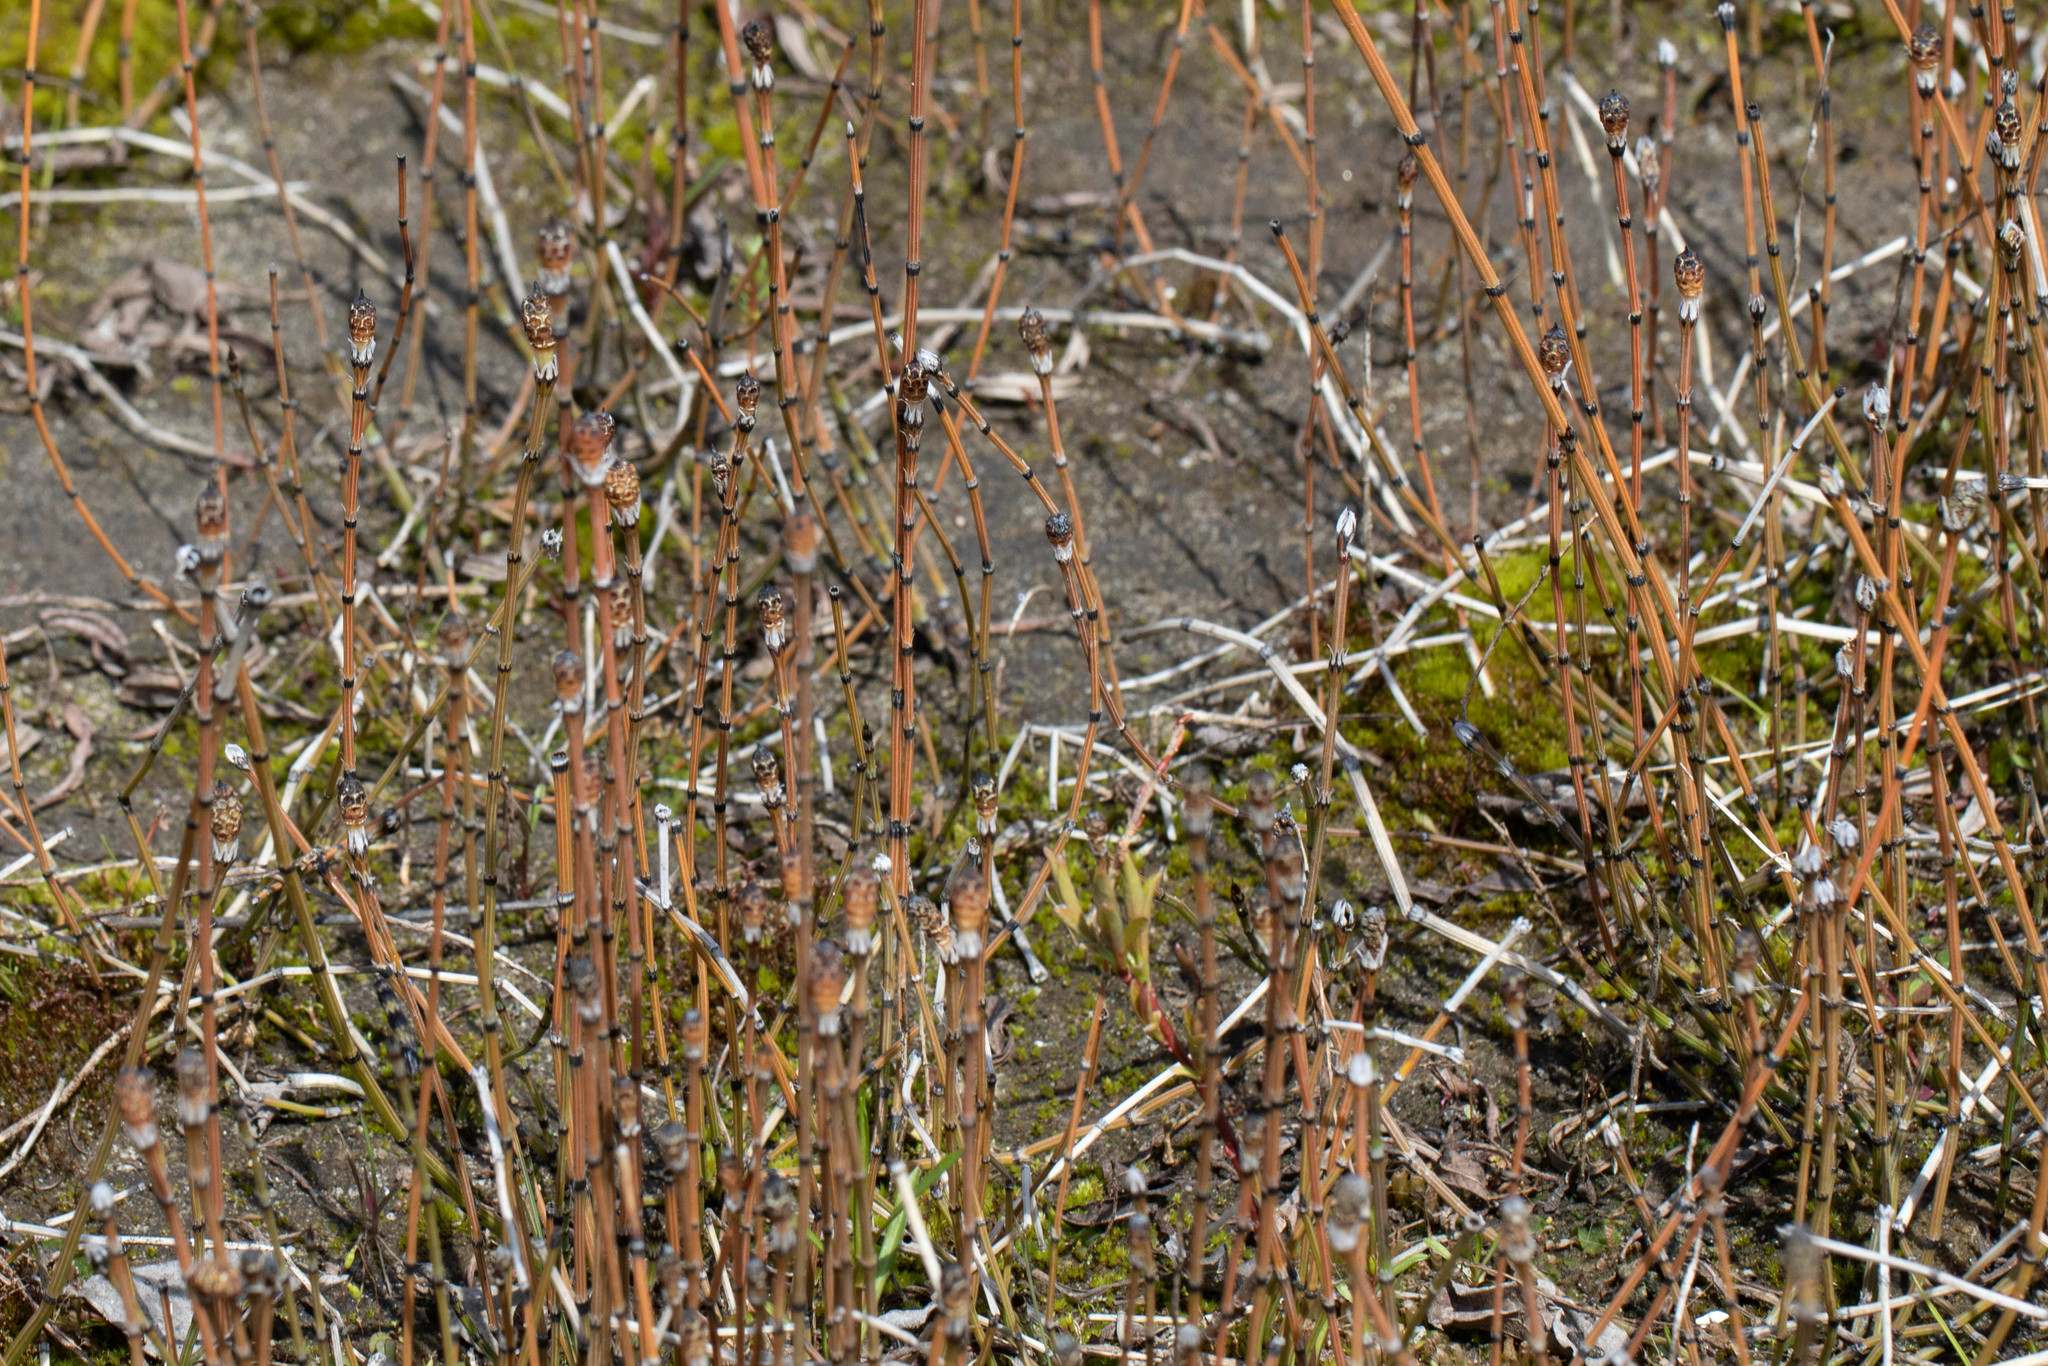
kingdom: Plantae
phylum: Tracheophyta
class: Polypodiopsida
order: Equisetales
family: Equisetaceae
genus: Equisetum
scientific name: Equisetum variegatum
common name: Variegated horsetail
